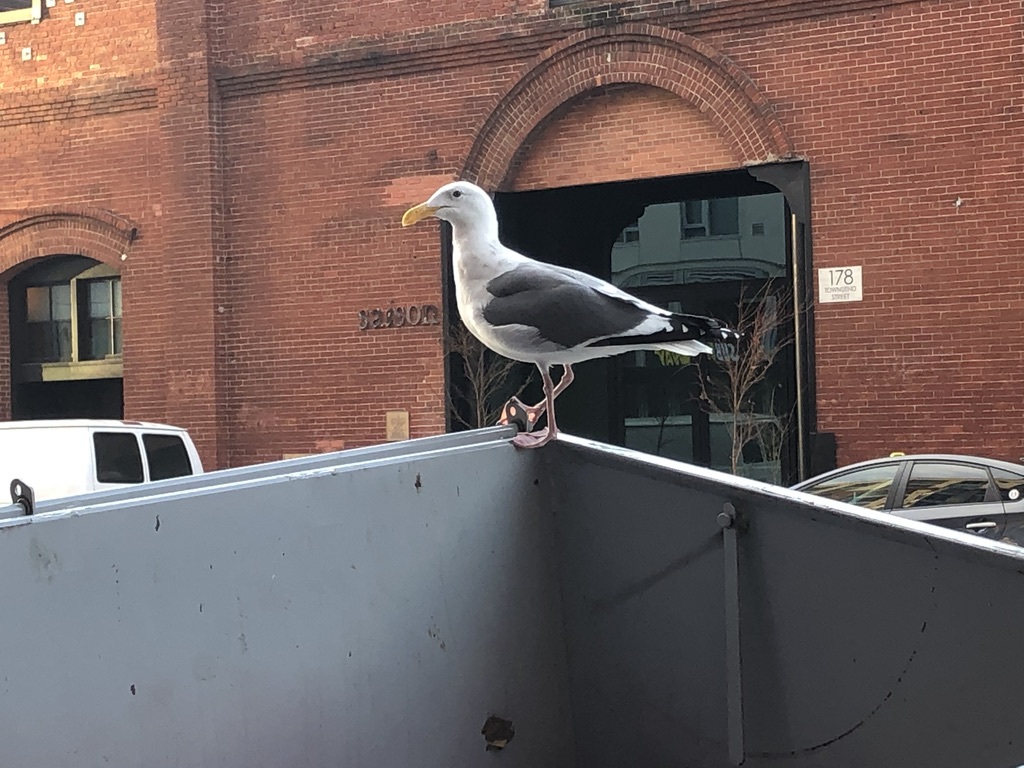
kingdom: Animalia
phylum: Chordata
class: Aves
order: Charadriiformes
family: Laridae
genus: Larus
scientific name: Larus occidentalis
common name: Western gull
